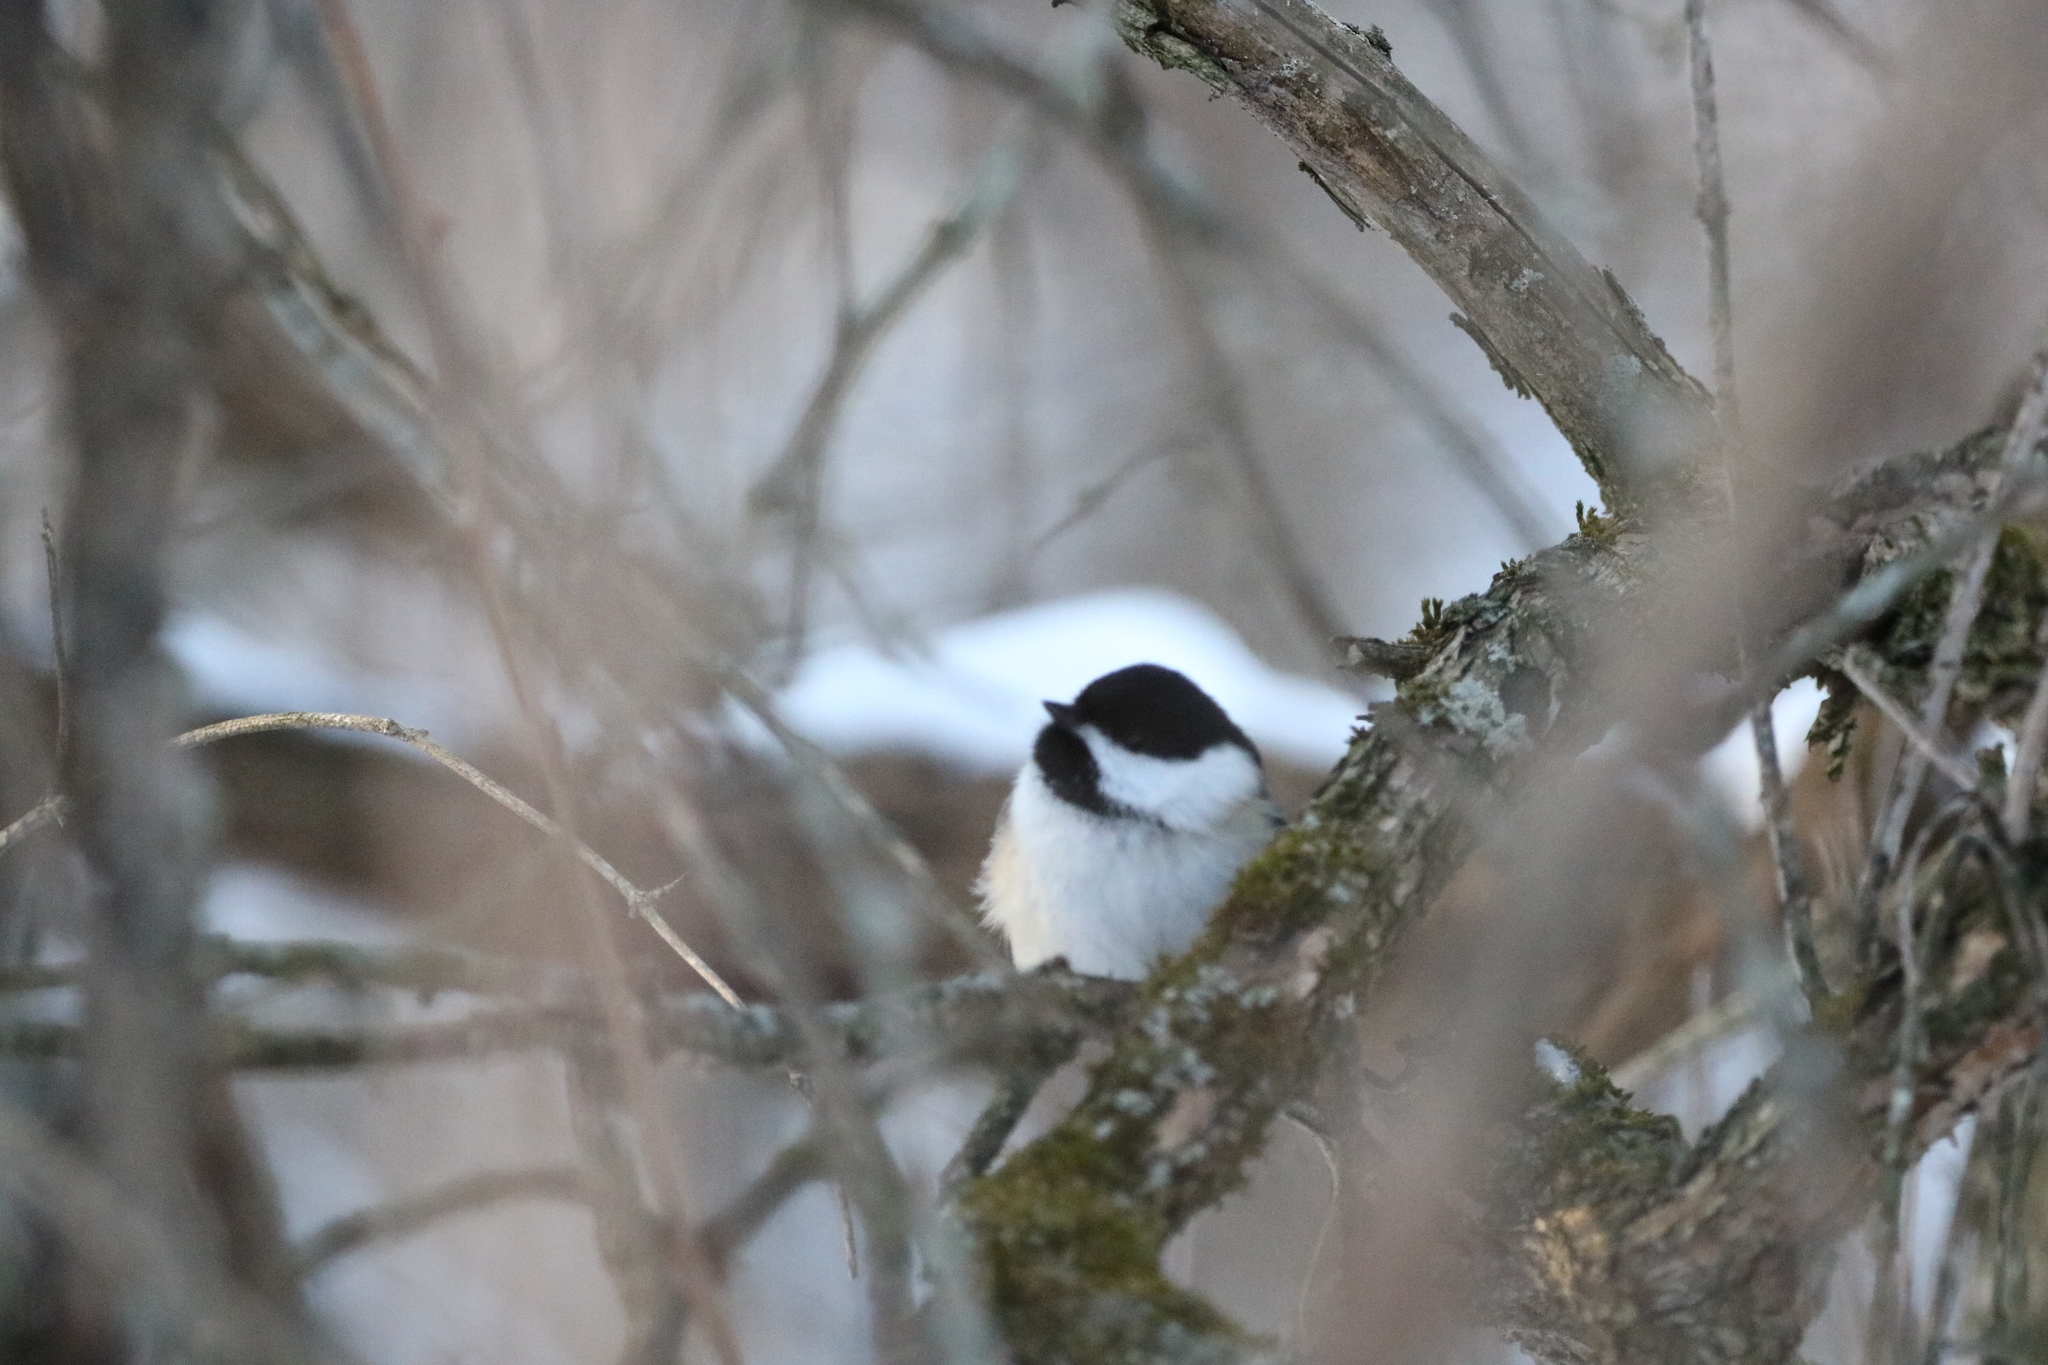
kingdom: Animalia
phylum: Chordata
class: Aves
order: Passeriformes
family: Paridae
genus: Poecile
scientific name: Poecile atricapillus
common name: Black-capped chickadee
